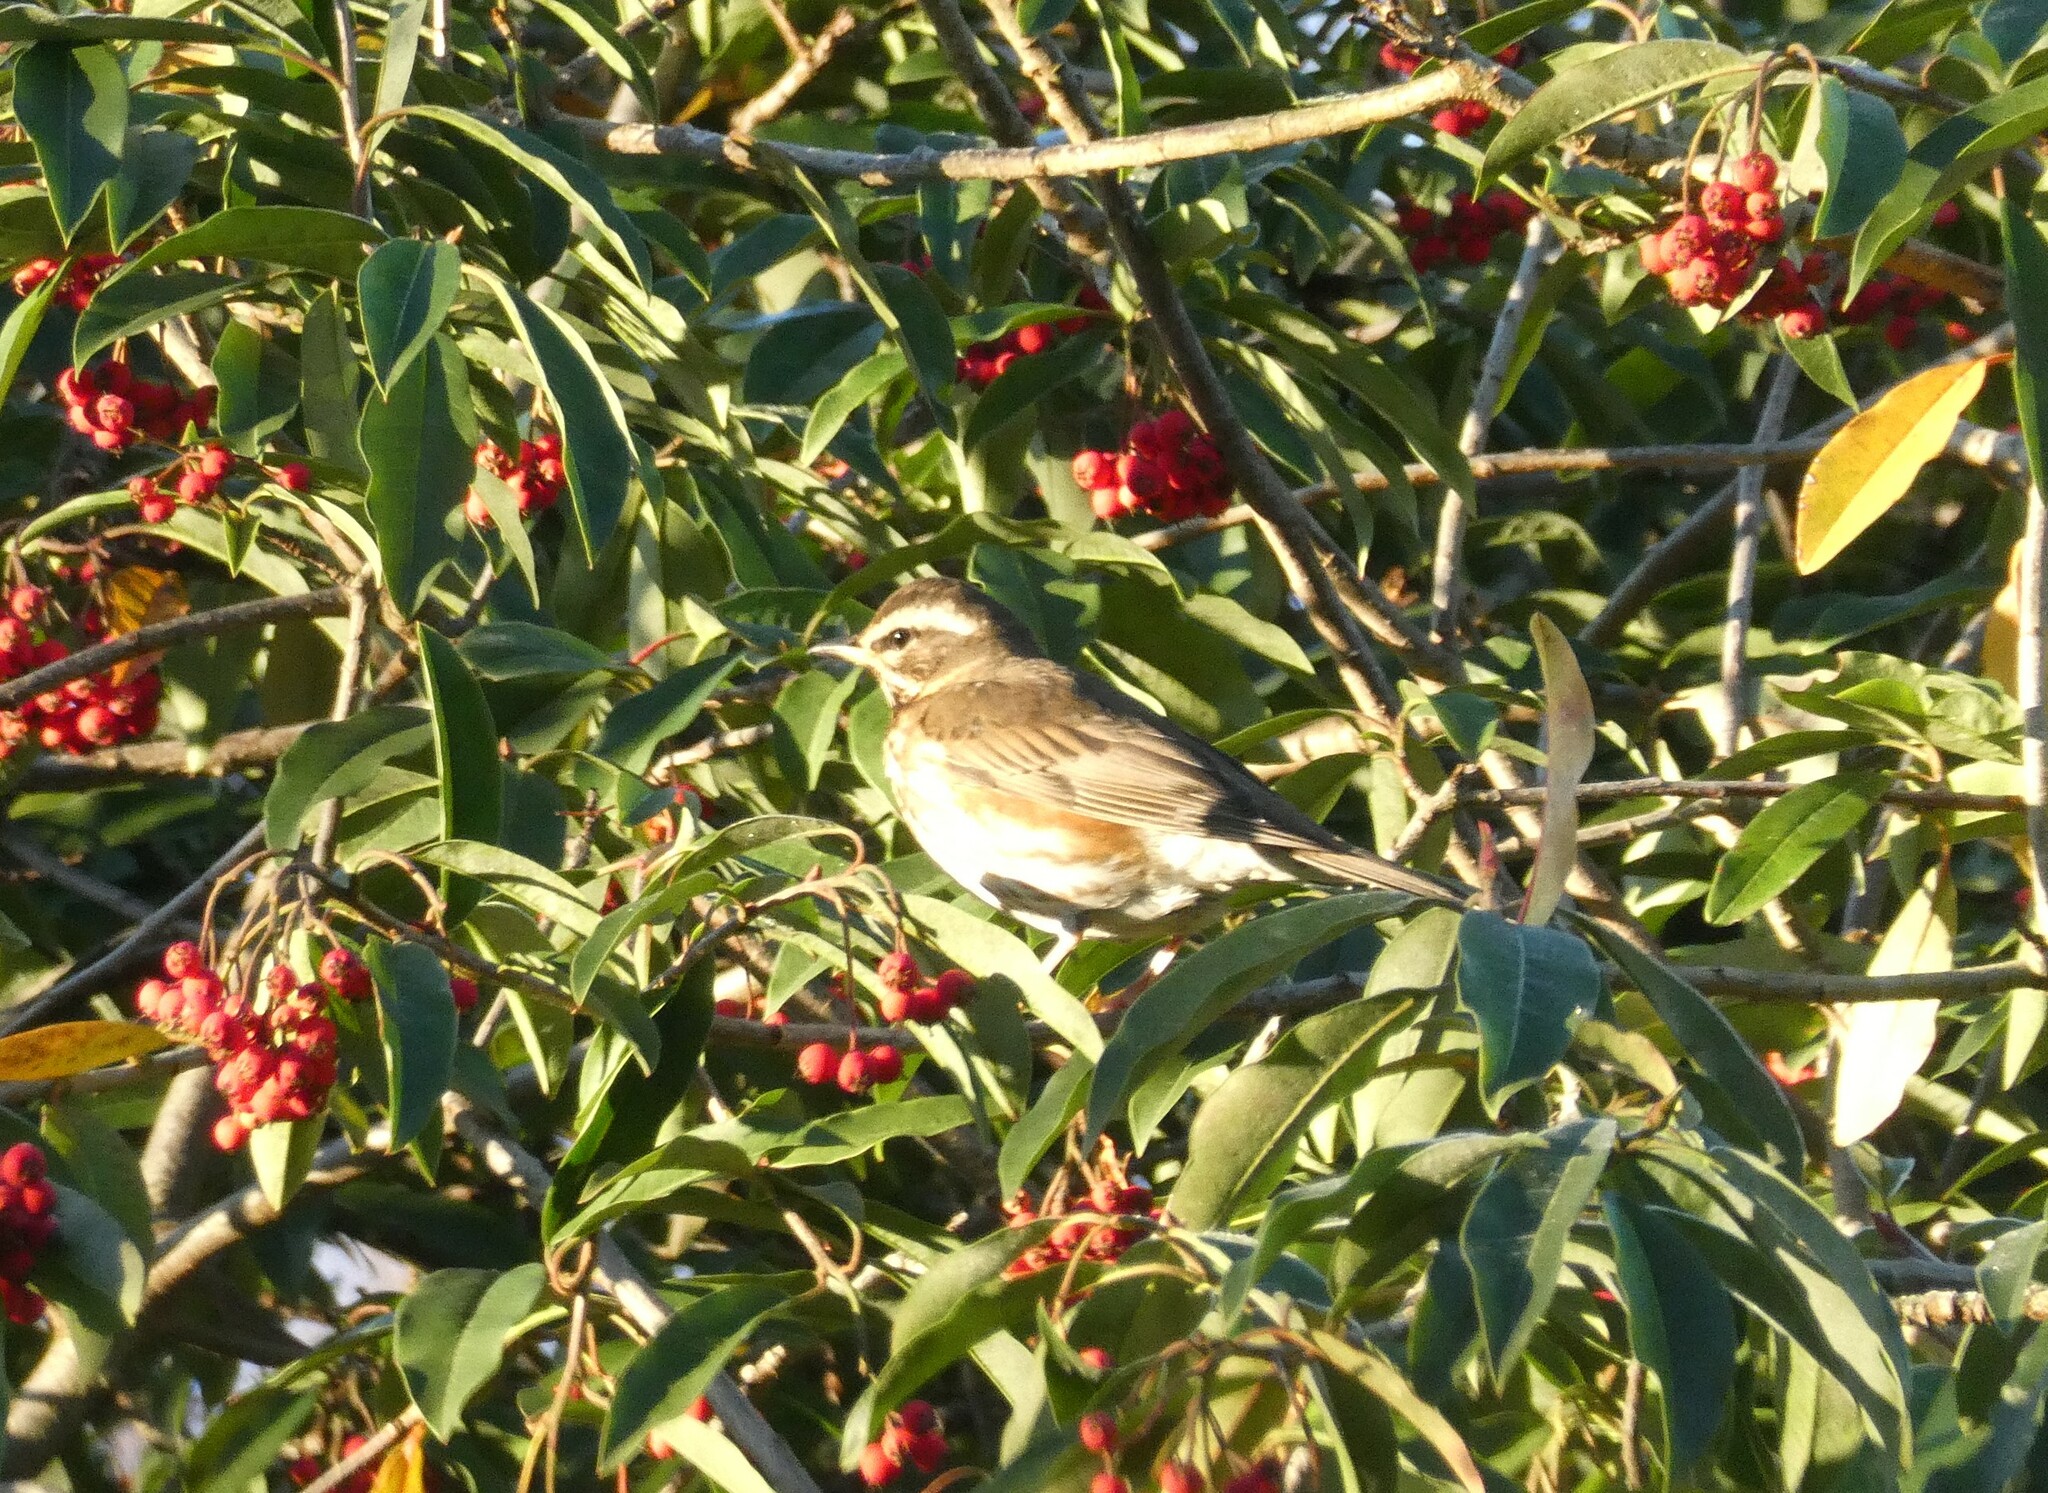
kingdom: Animalia
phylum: Chordata
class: Aves
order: Passeriformes
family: Turdidae
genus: Turdus
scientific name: Turdus iliacus
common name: Redwing
